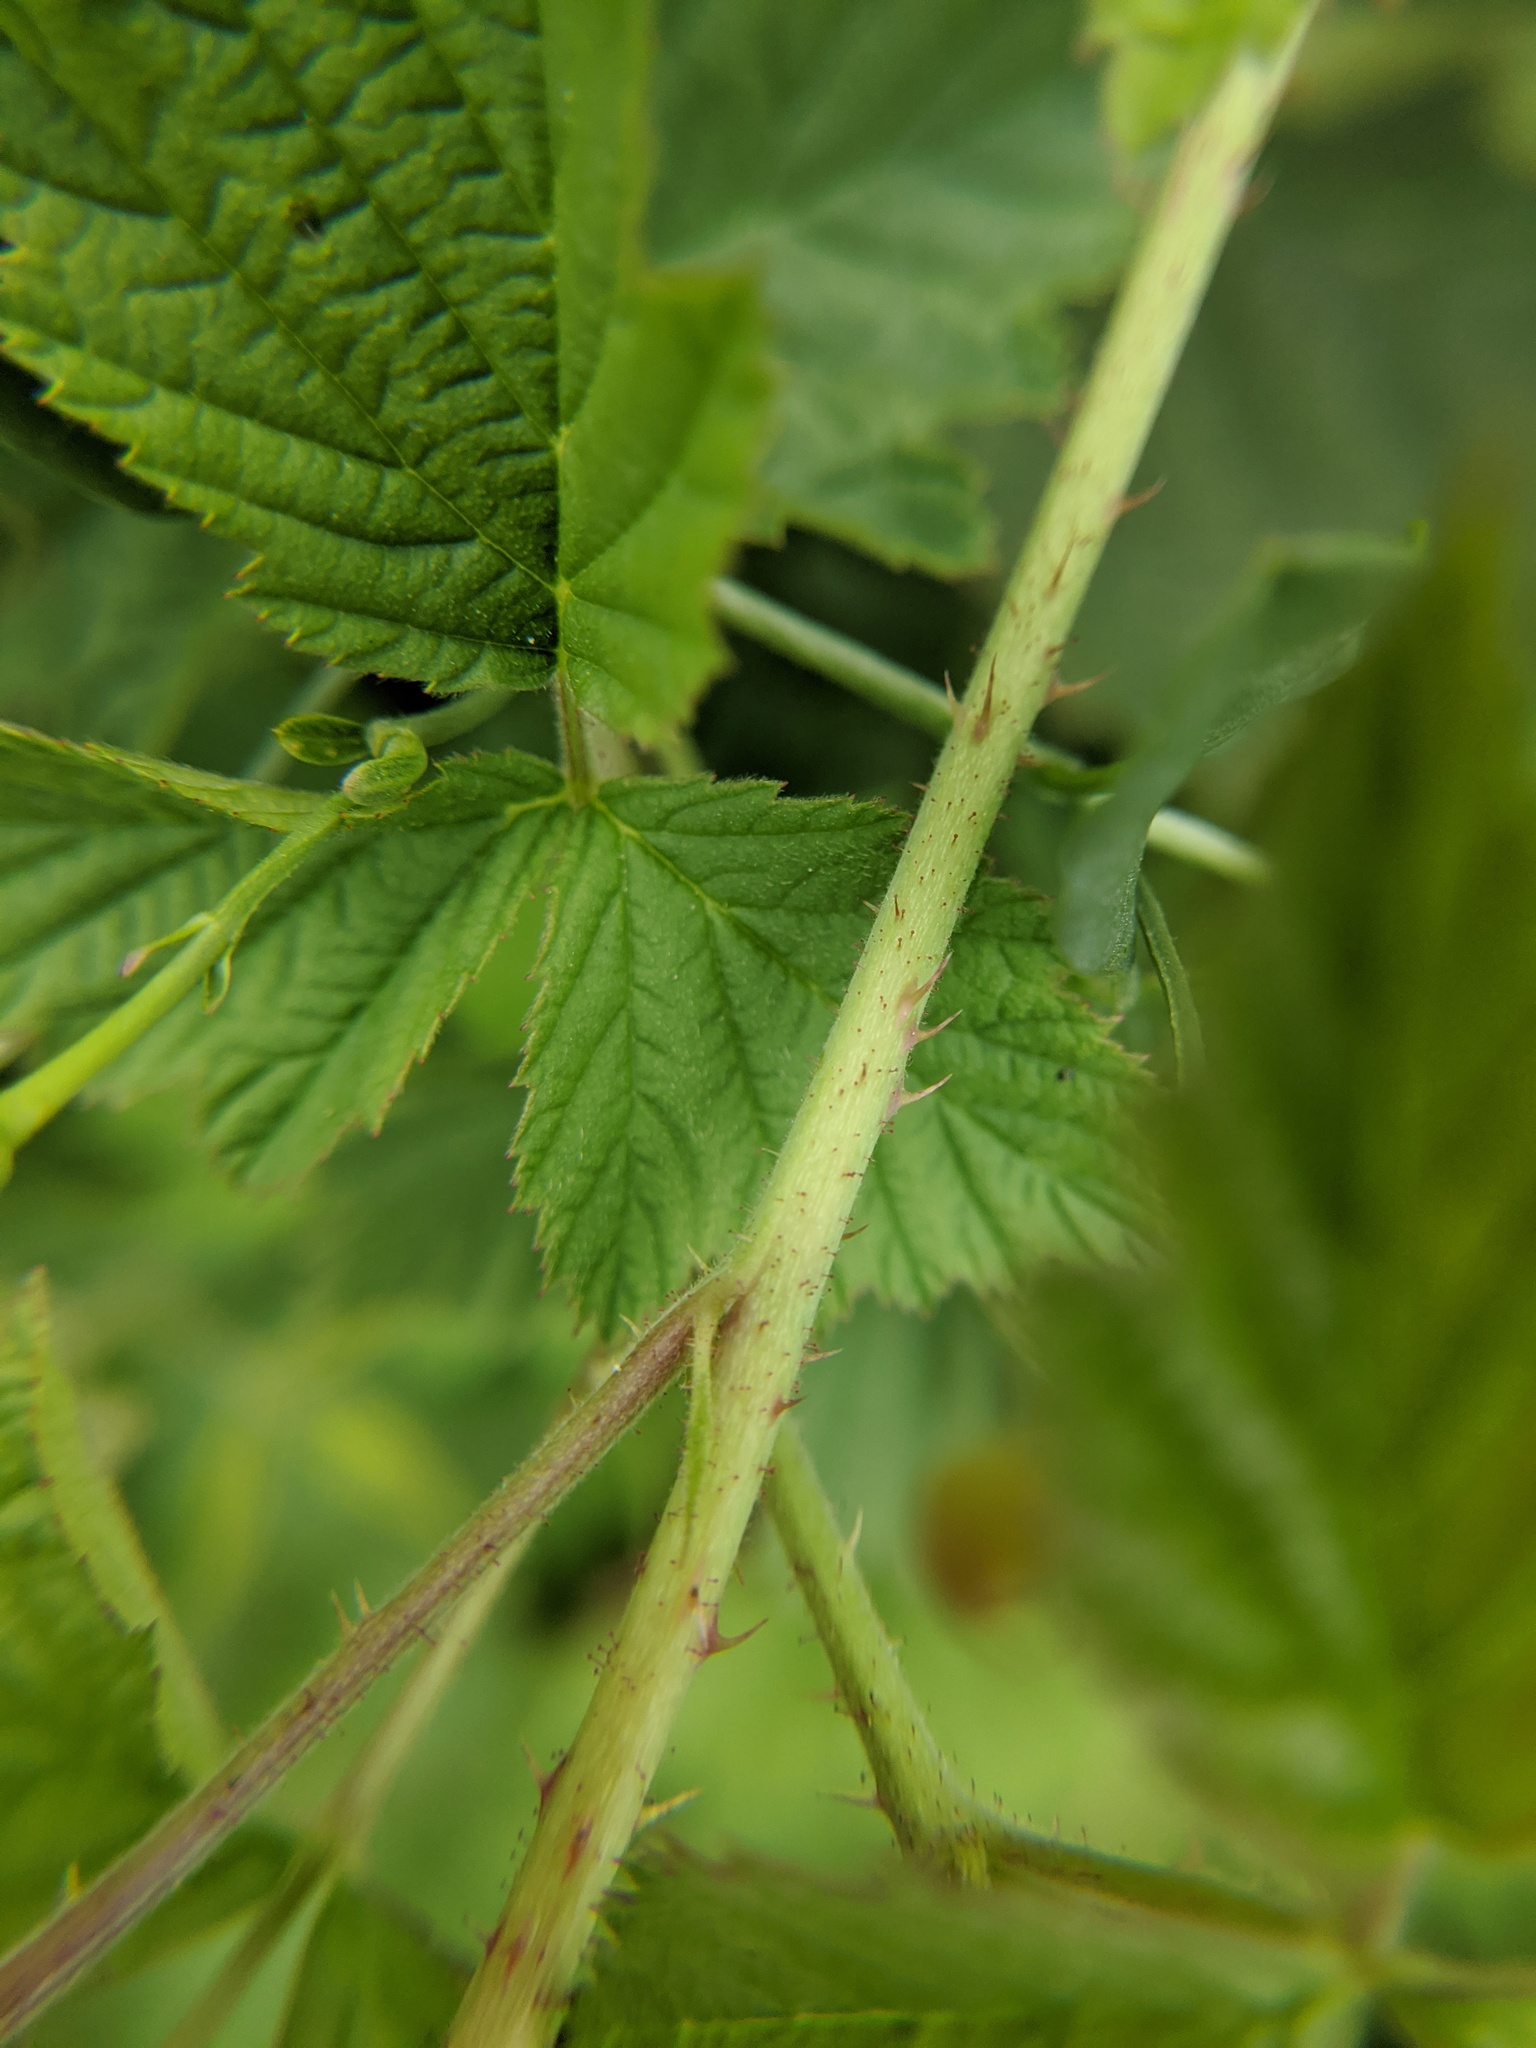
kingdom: Plantae
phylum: Tracheophyta
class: Magnoliopsida
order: Rosales
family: Rosaceae
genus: Rubus
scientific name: Rubus caesius
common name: Dewberry
